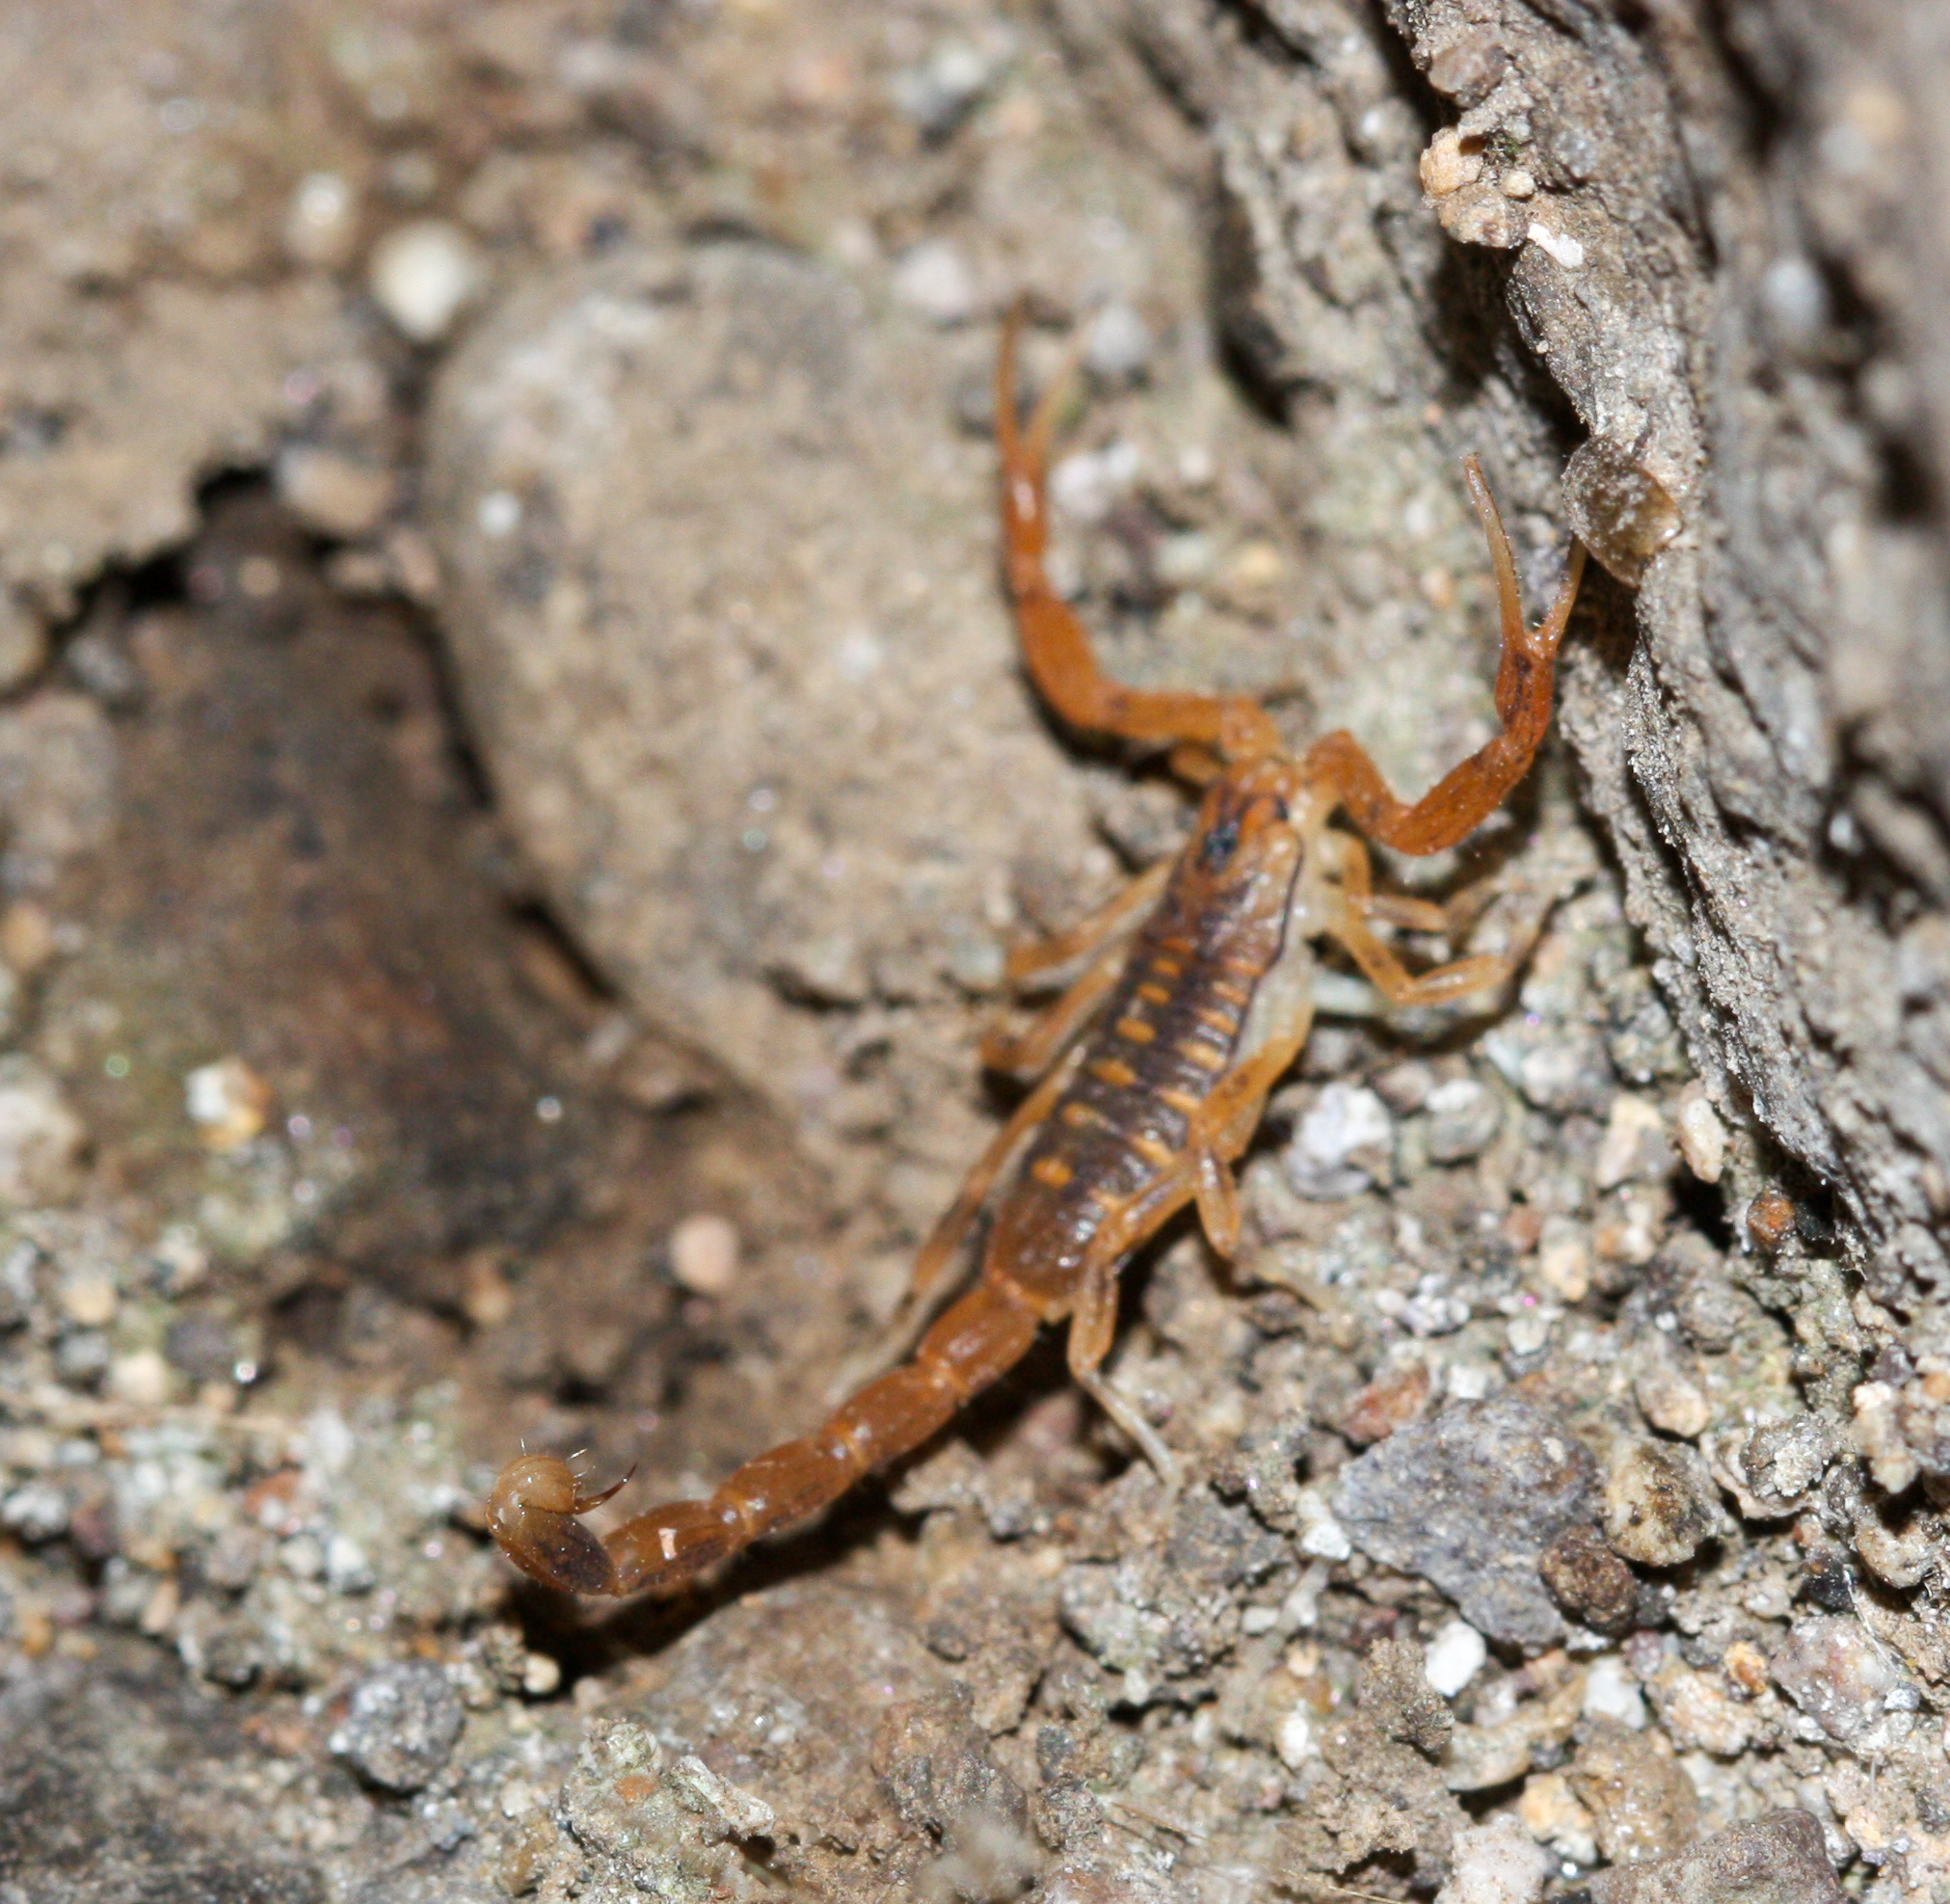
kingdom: Animalia
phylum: Arthropoda
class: Arachnida
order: Scorpiones
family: Buthidae
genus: Centruroides
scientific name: Centruroides sculpturatus
